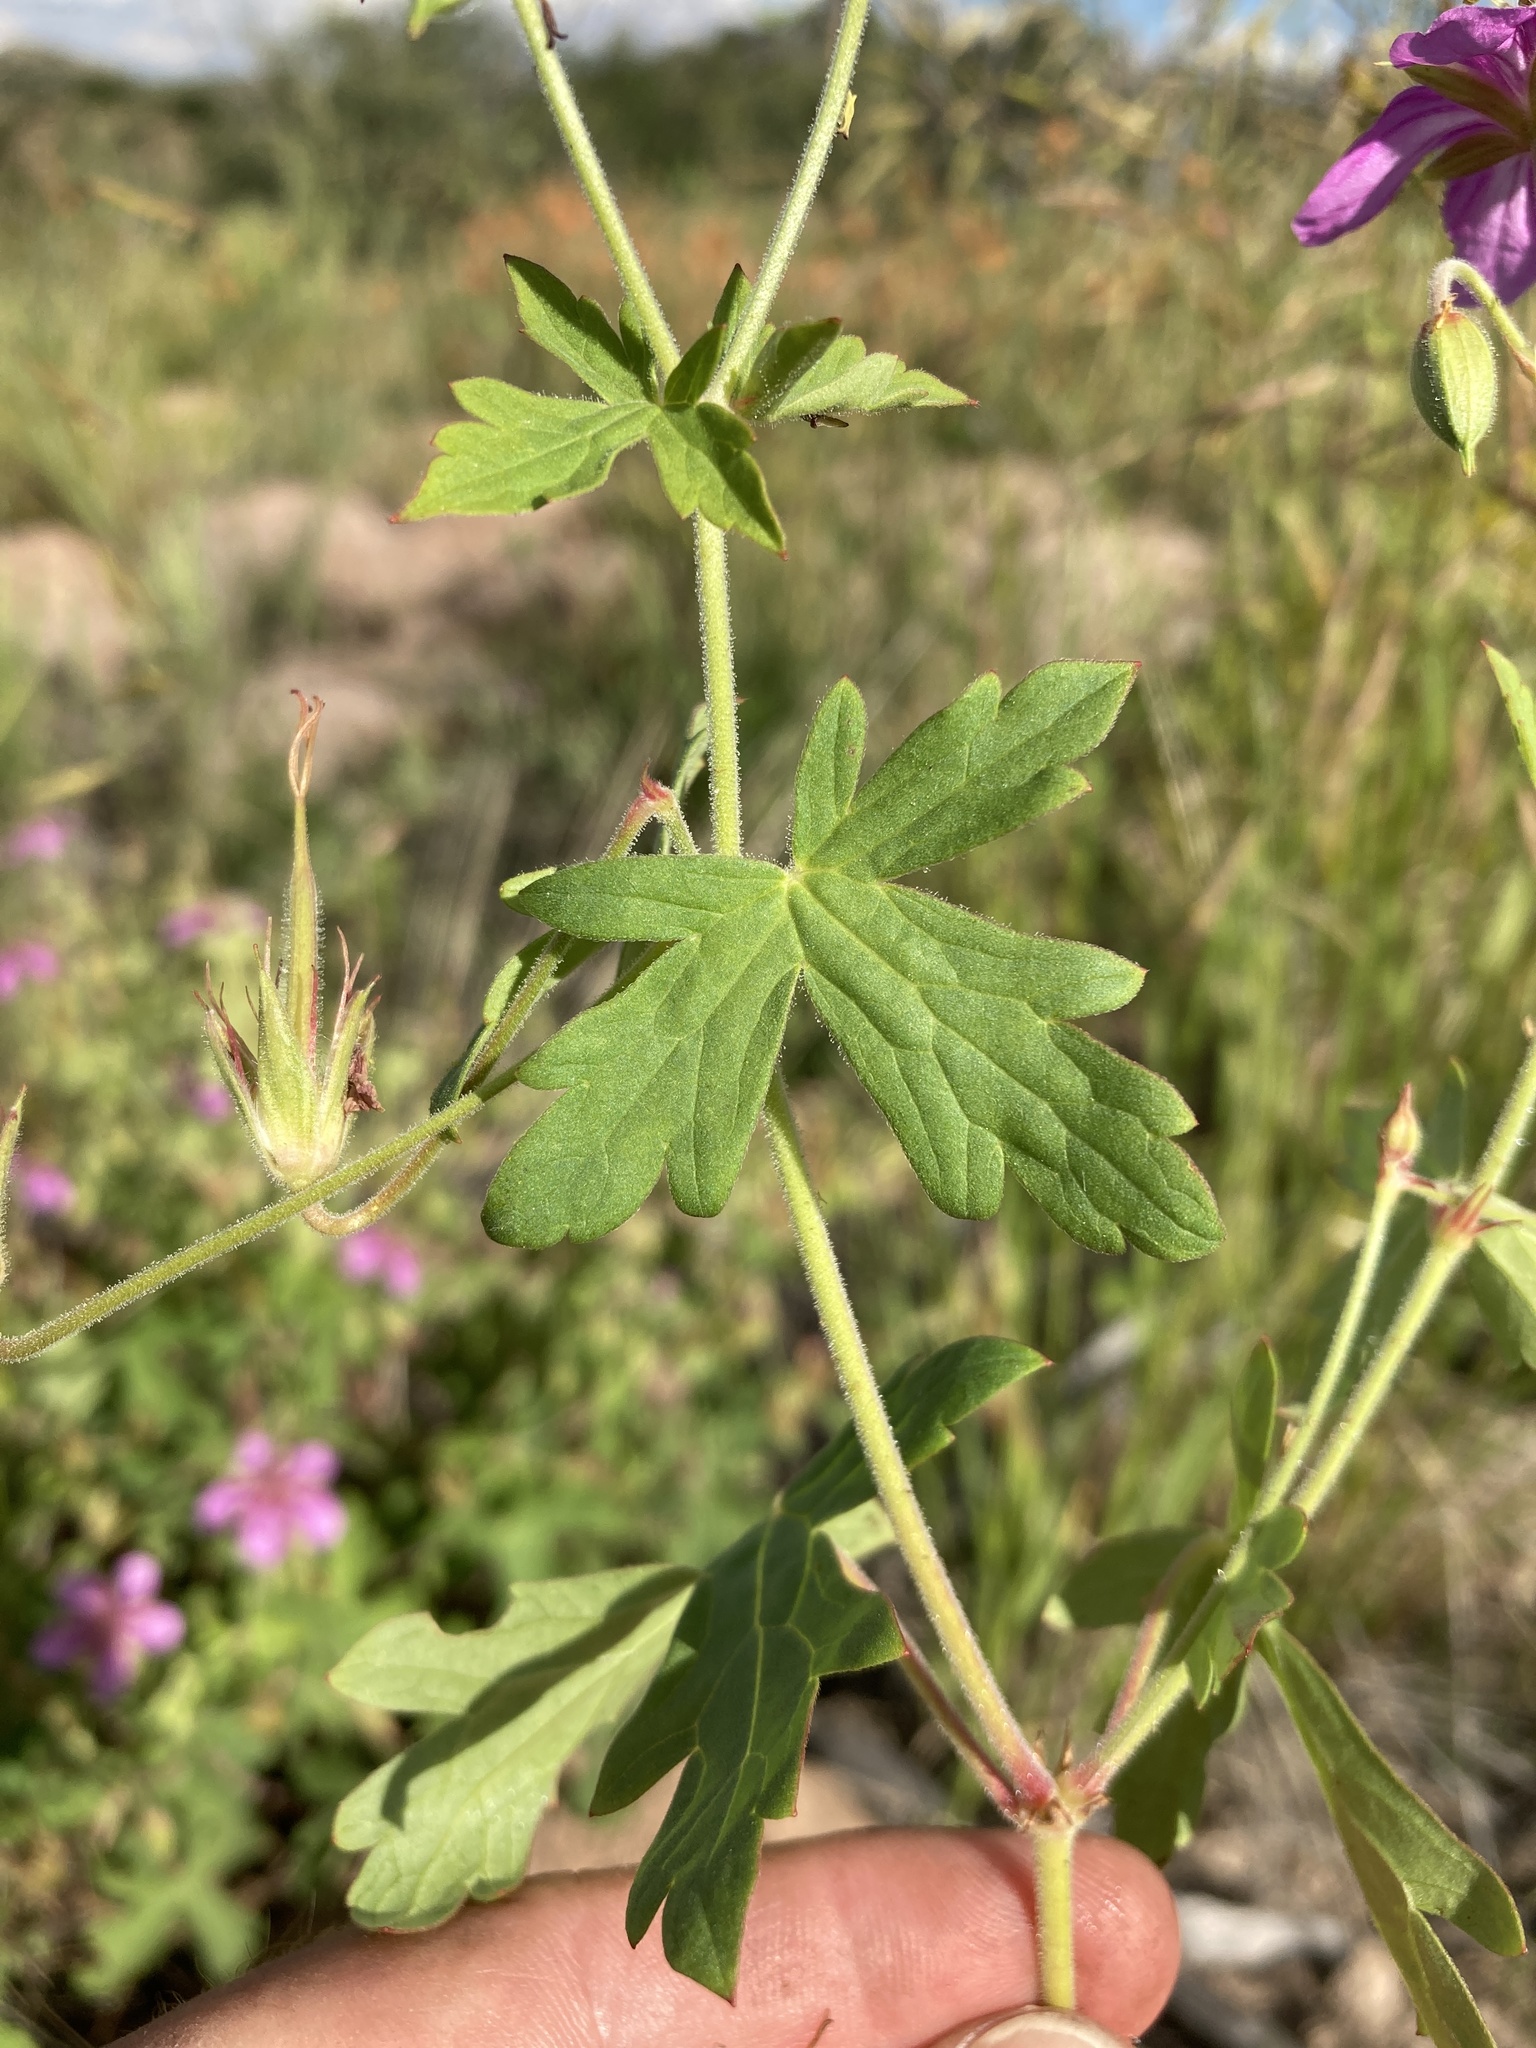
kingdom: Plantae
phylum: Tracheophyta
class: Magnoliopsida
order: Geraniales
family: Geraniaceae
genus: Geranium
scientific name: Geranium caespitosum
